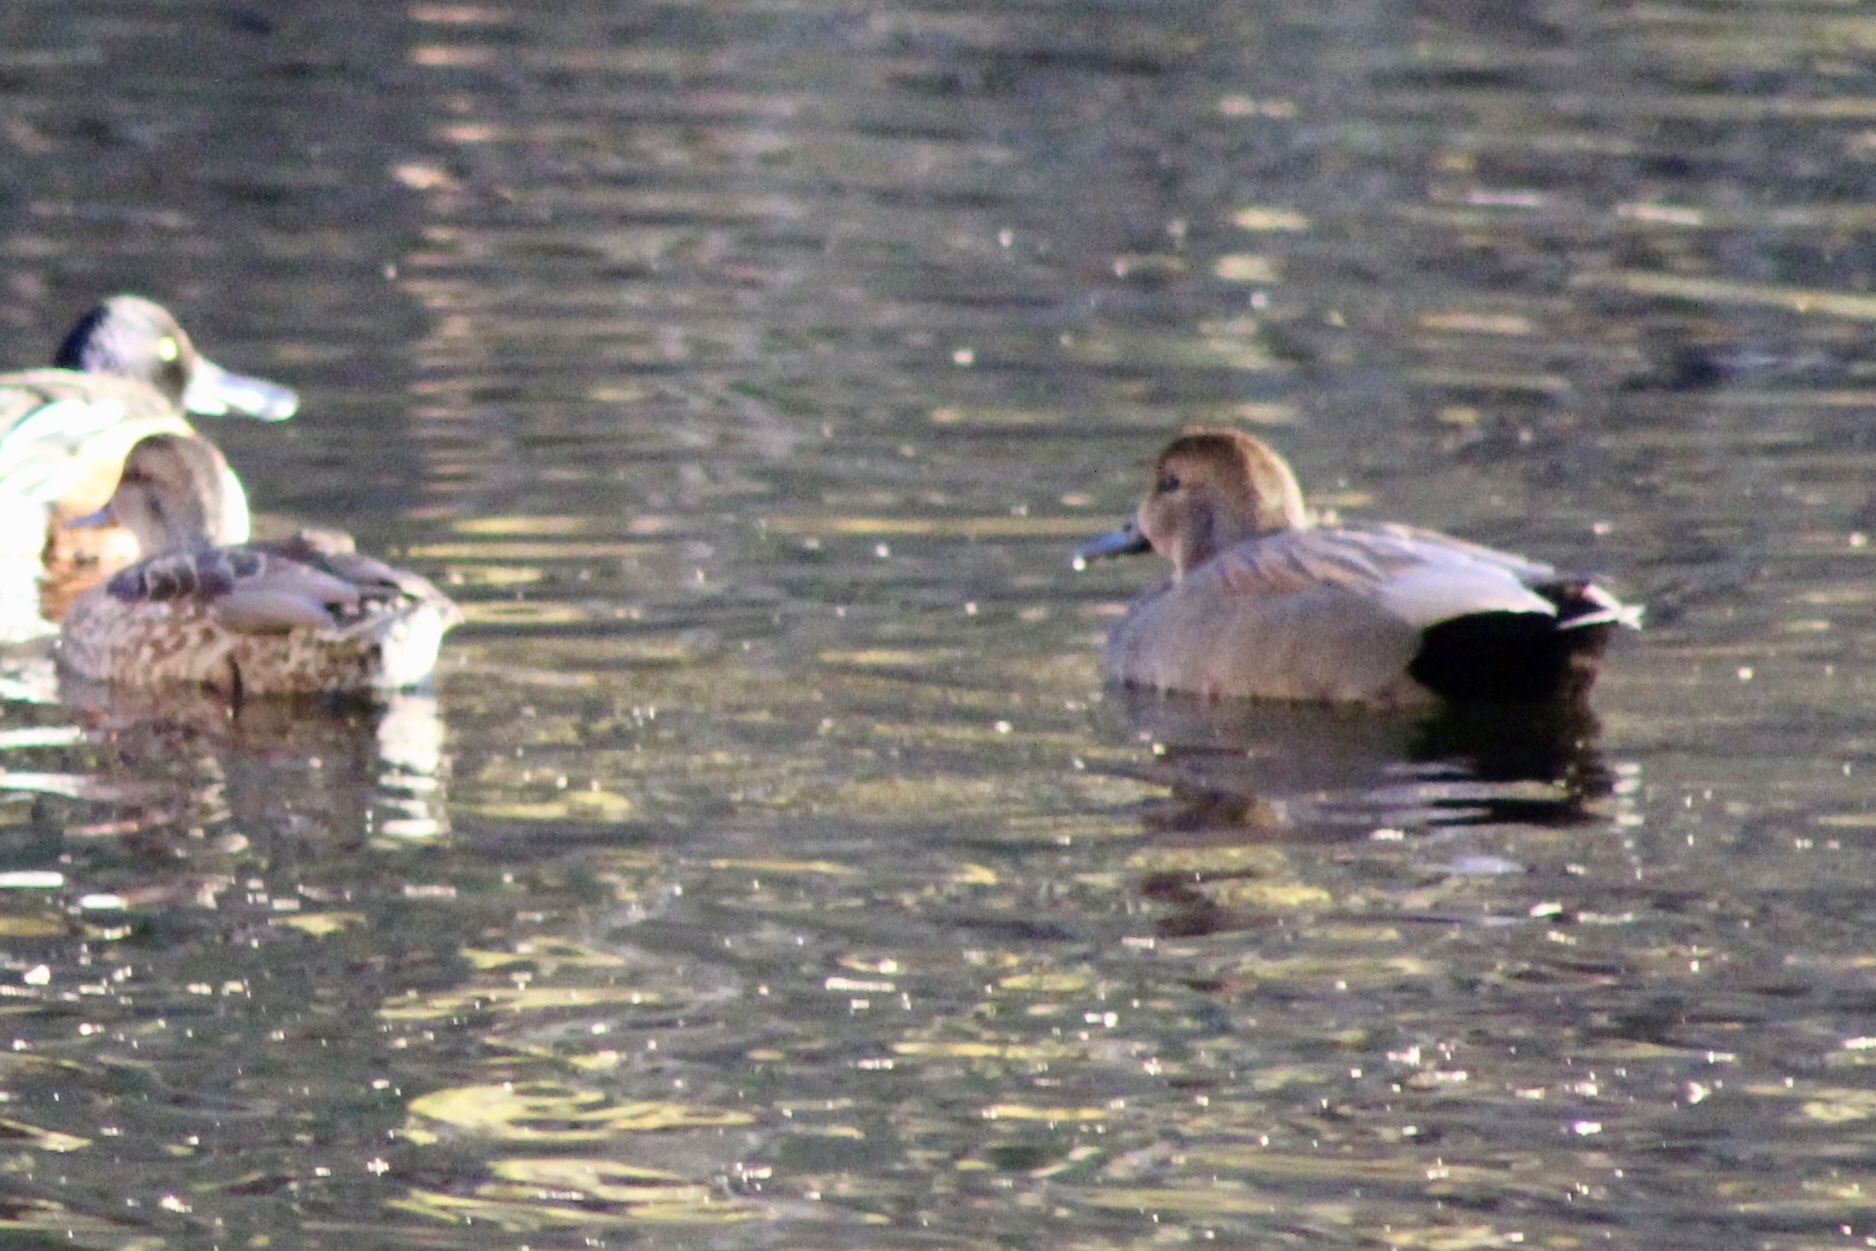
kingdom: Animalia
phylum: Chordata
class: Aves
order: Anseriformes
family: Anatidae
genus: Mareca
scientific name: Mareca strepera
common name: Gadwall
